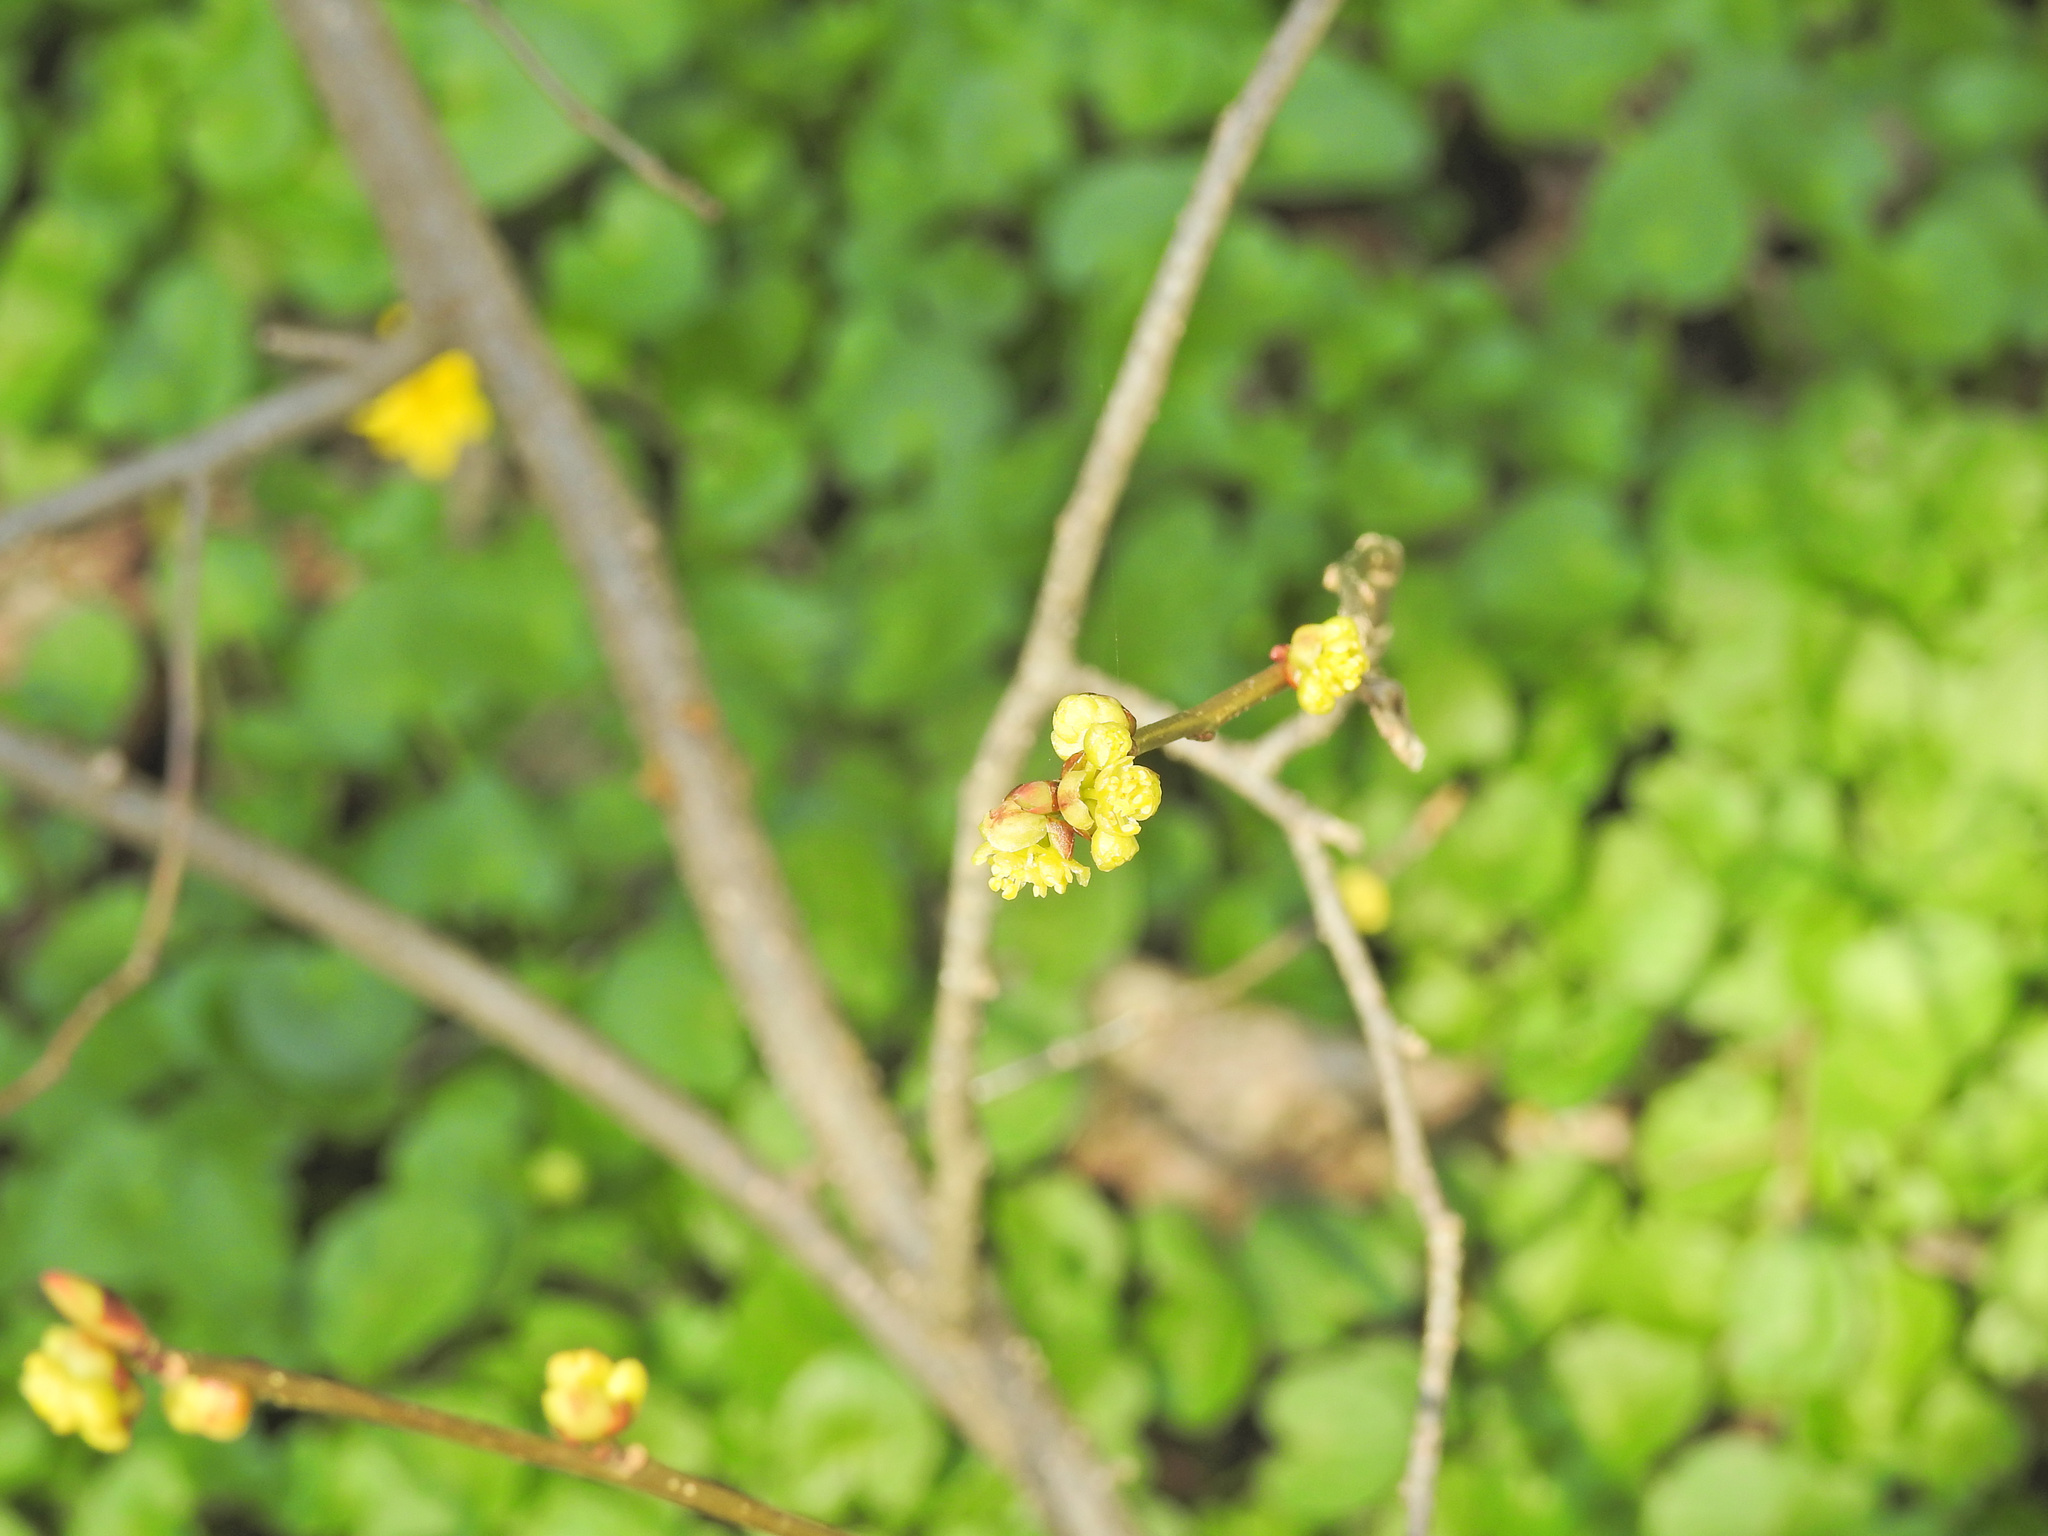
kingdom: Plantae
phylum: Tracheophyta
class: Magnoliopsida
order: Laurales
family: Lauraceae
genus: Lindera
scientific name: Lindera benzoin
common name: Spicebush
